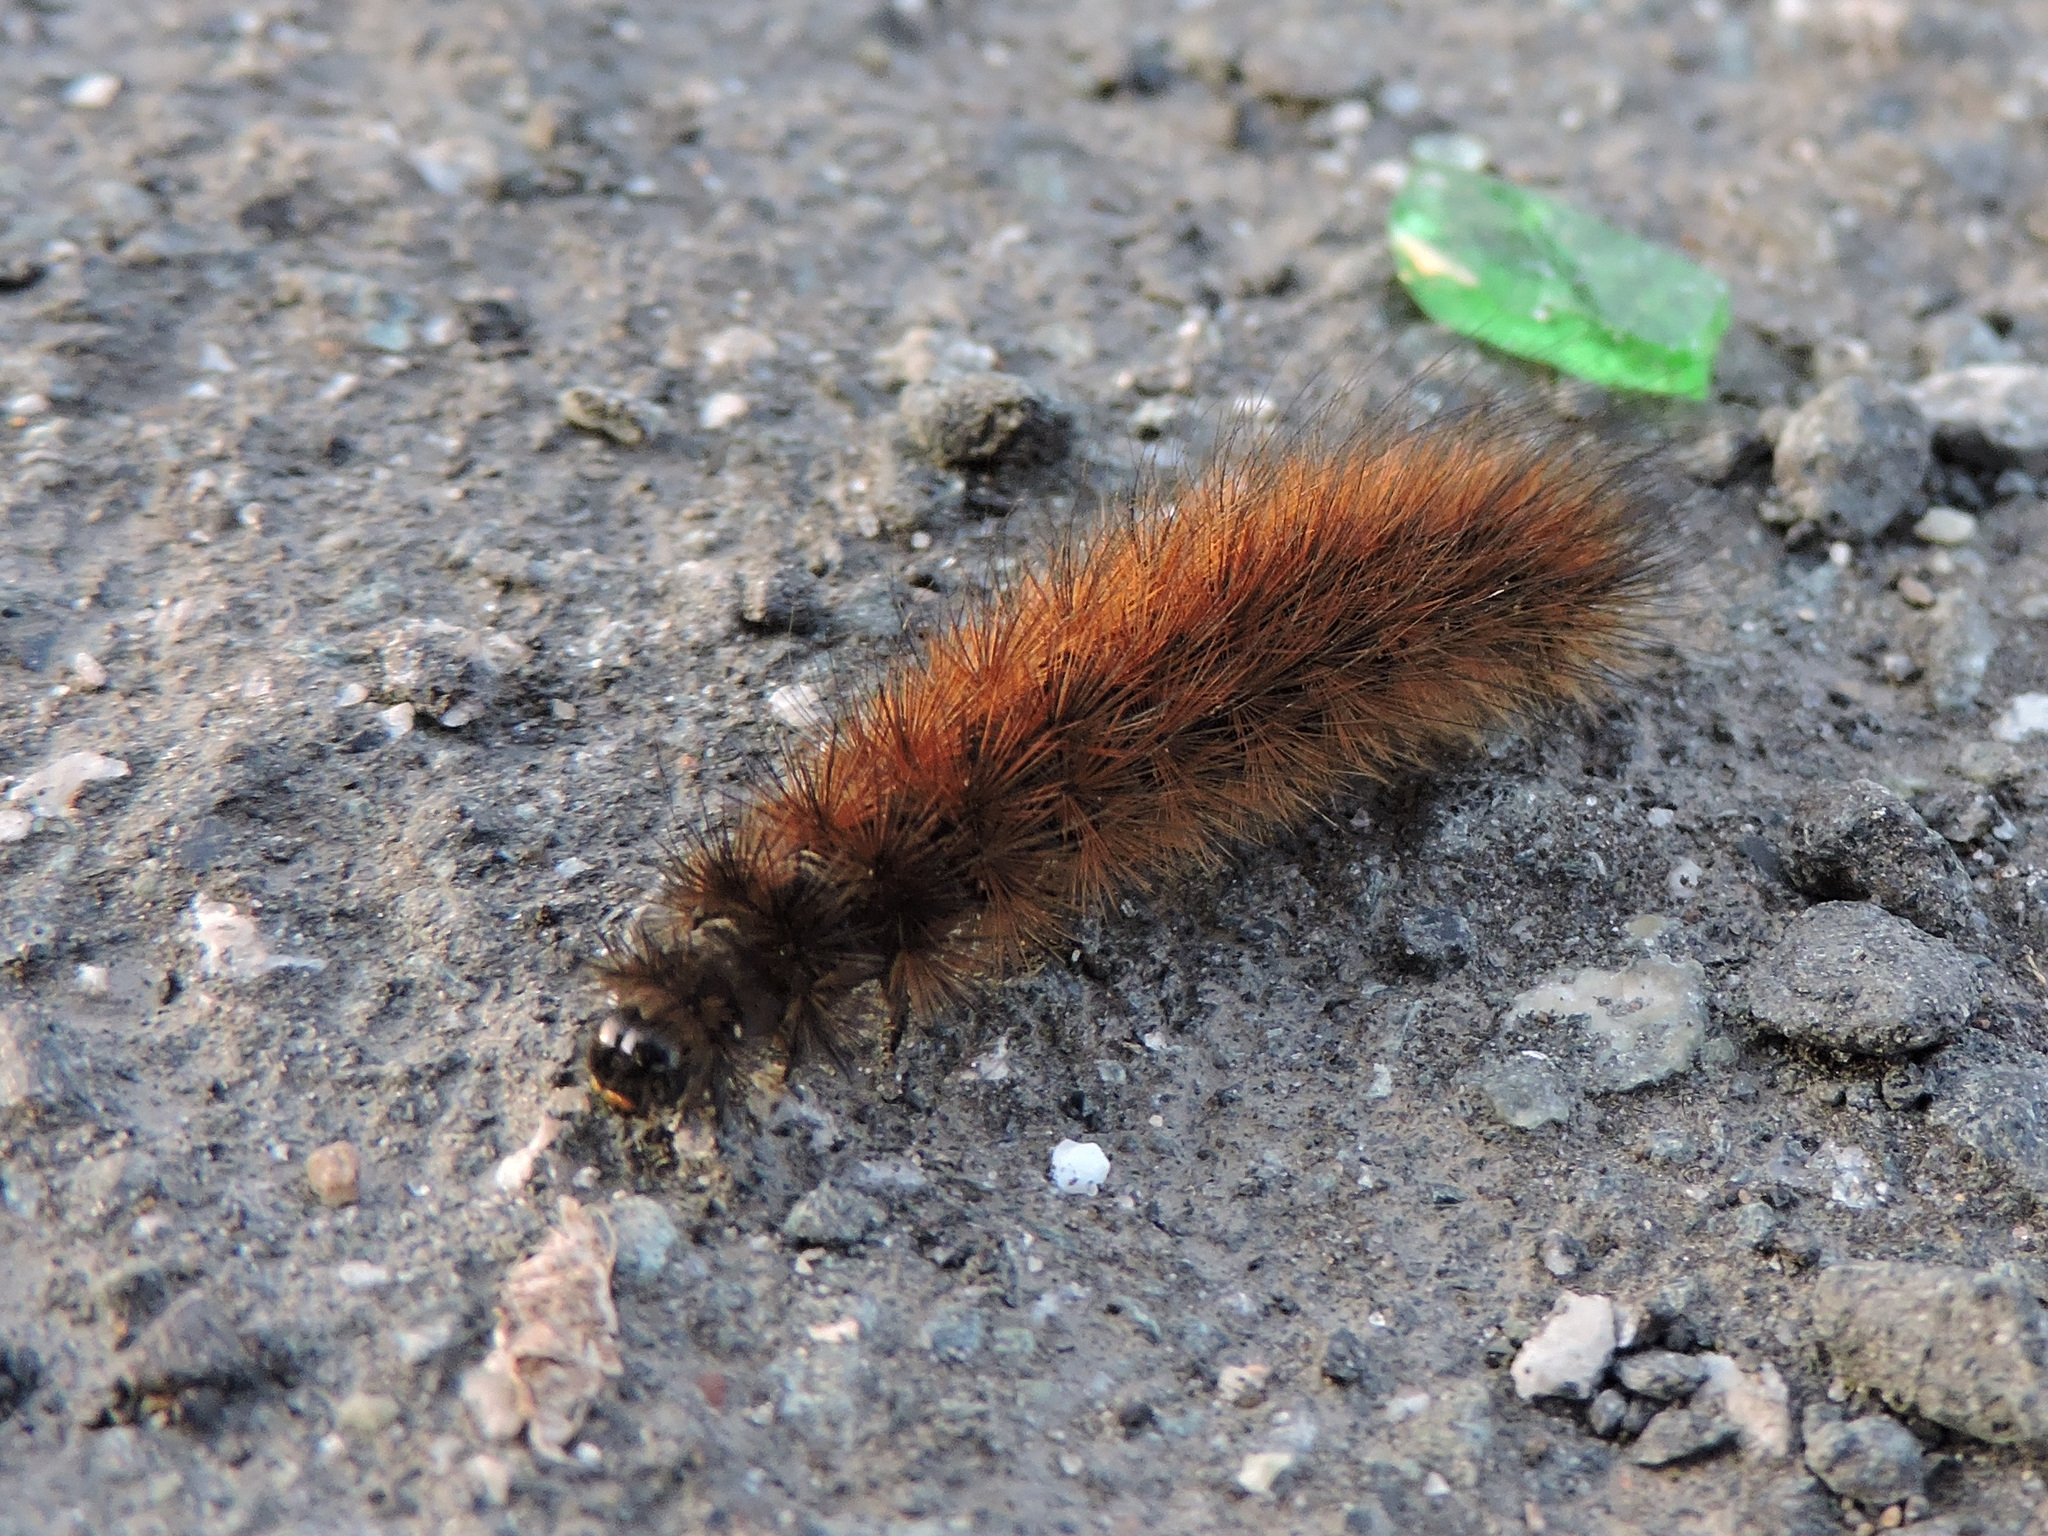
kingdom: Animalia
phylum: Arthropoda
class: Insecta
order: Lepidoptera
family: Erebidae
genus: Phragmatobia
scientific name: Phragmatobia fuliginosa
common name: Ruby tiger
